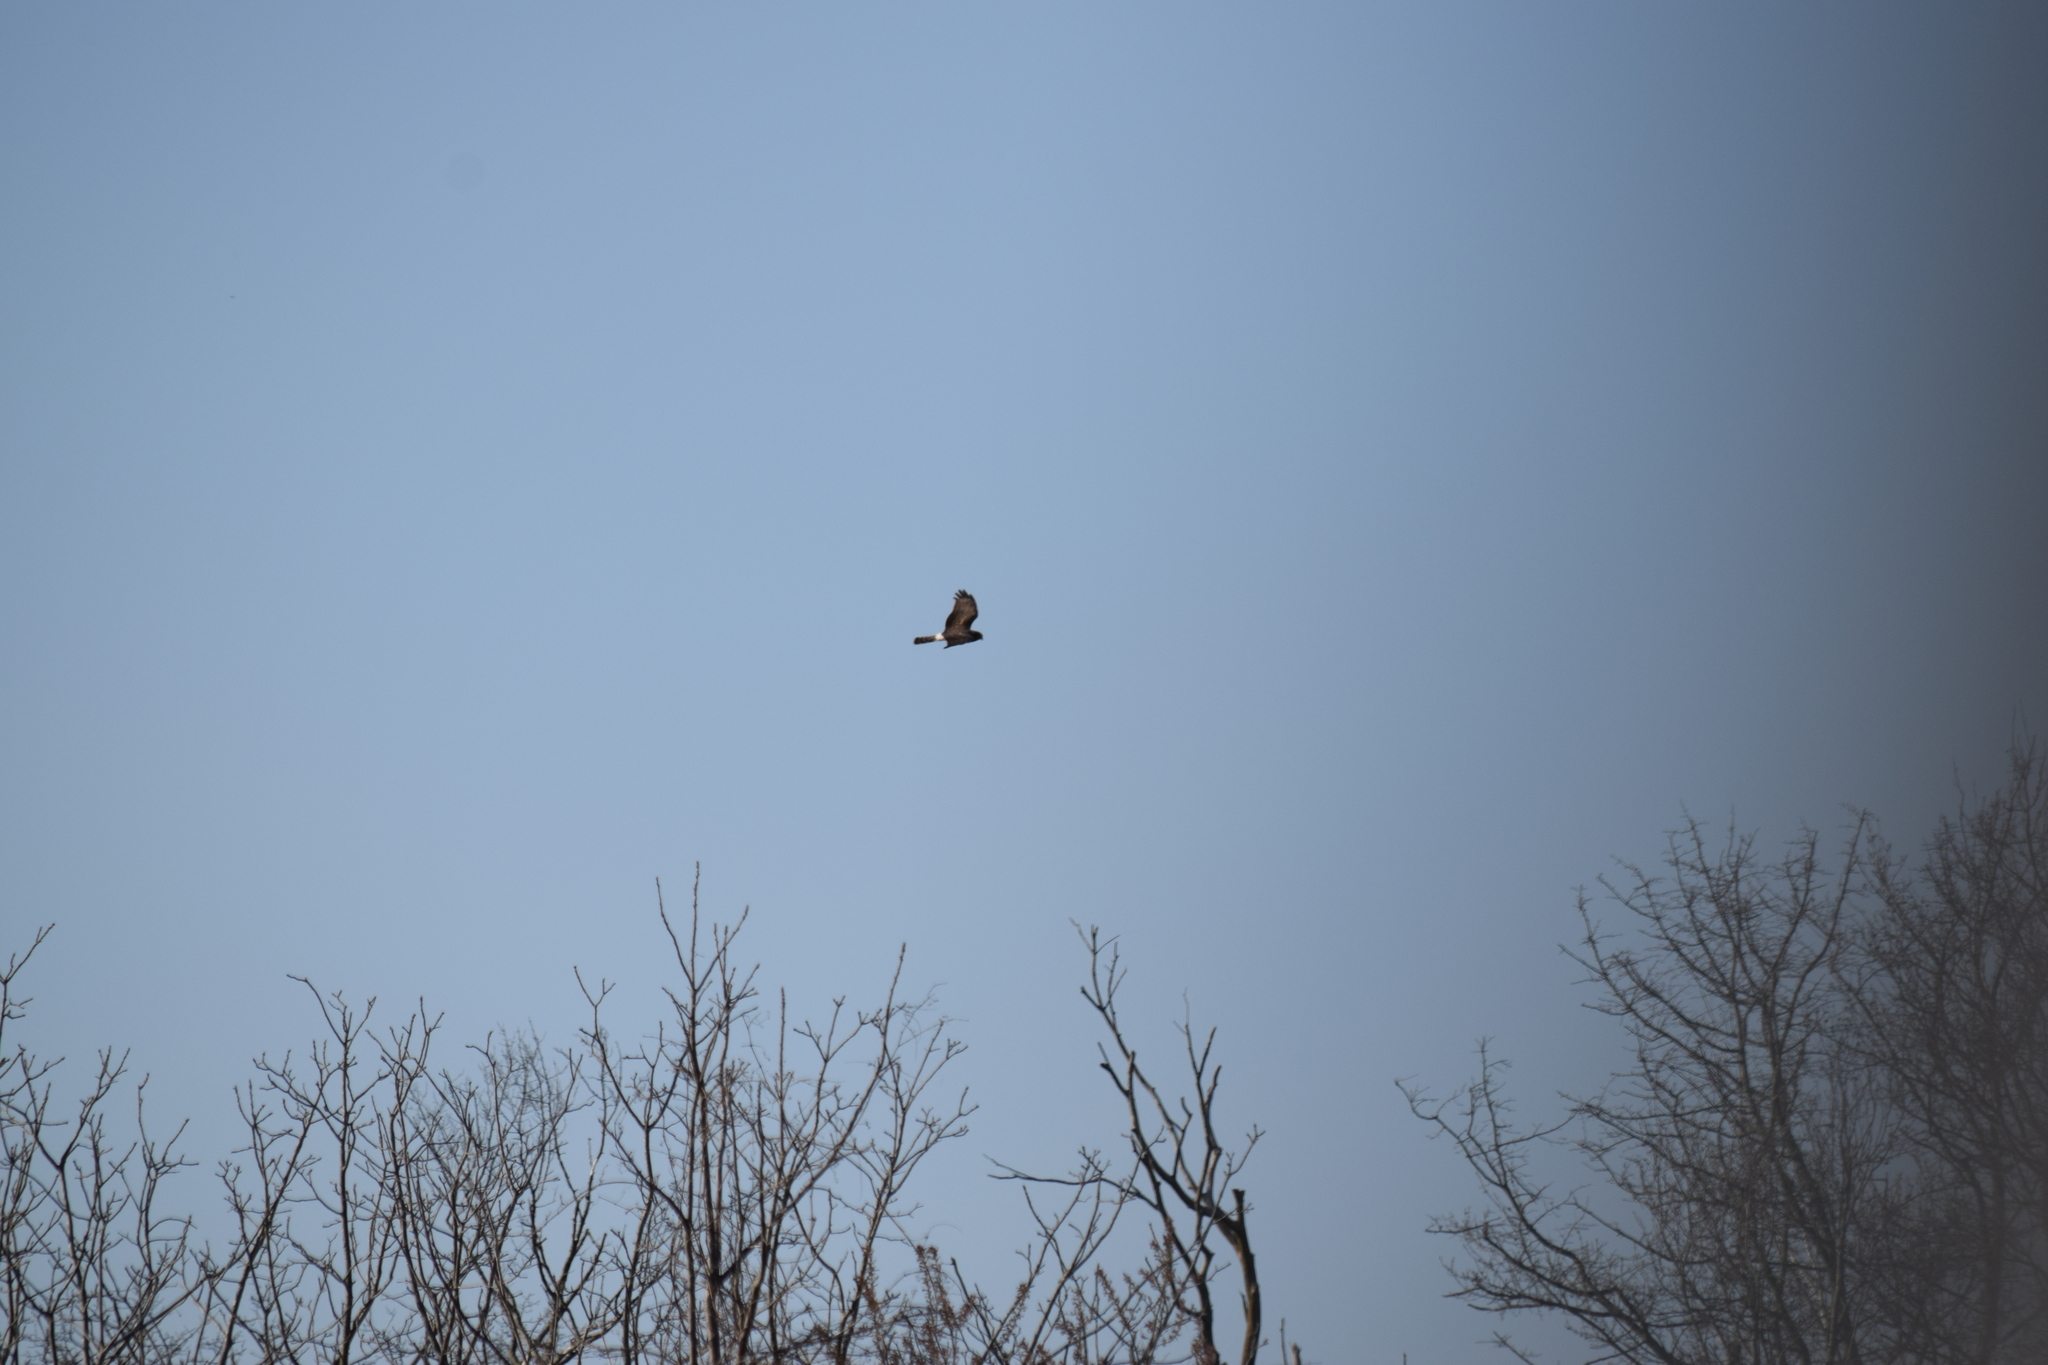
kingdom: Animalia
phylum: Chordata
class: Aves
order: Accipitriformes
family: Accipitridae
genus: Circus
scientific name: Circus cyaneus
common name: Hen harrier
